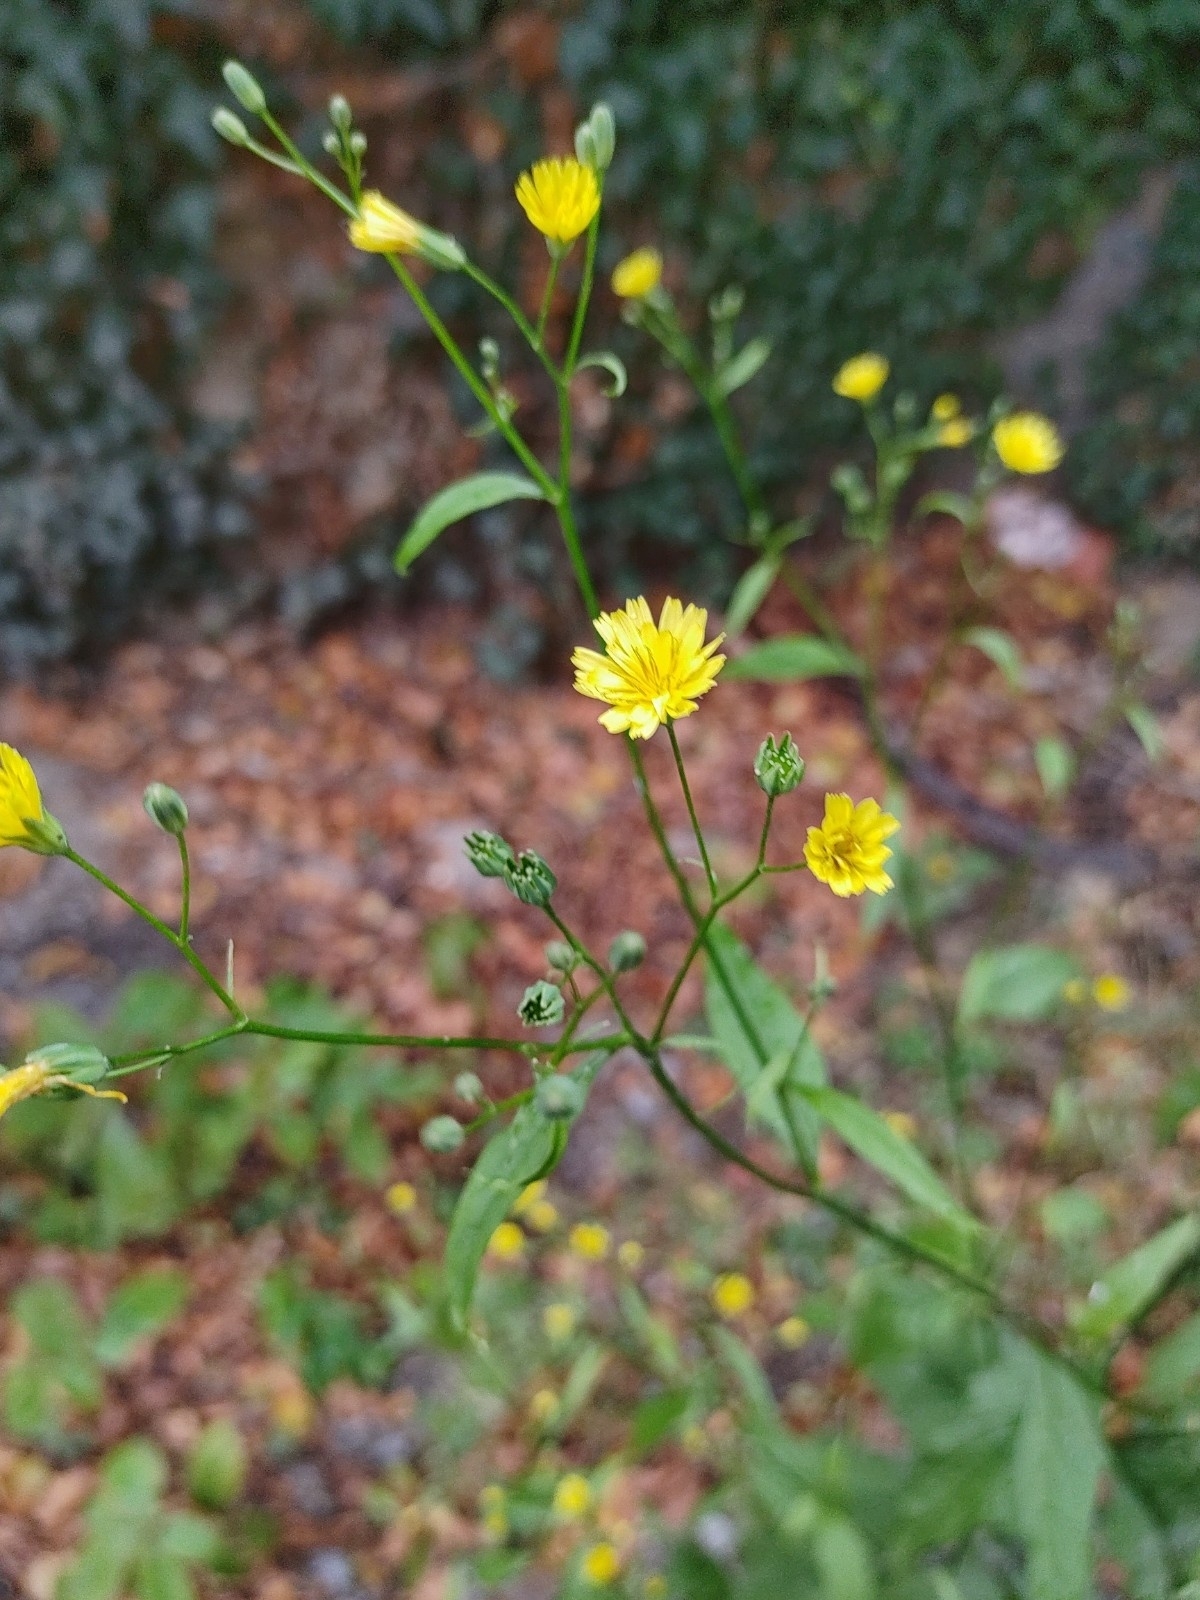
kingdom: Plantae
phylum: Tracheophyta
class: Magnoliopsida
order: Asterales
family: Asteraceae
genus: Lapsana
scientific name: Lapsana communis
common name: Nipplewort
